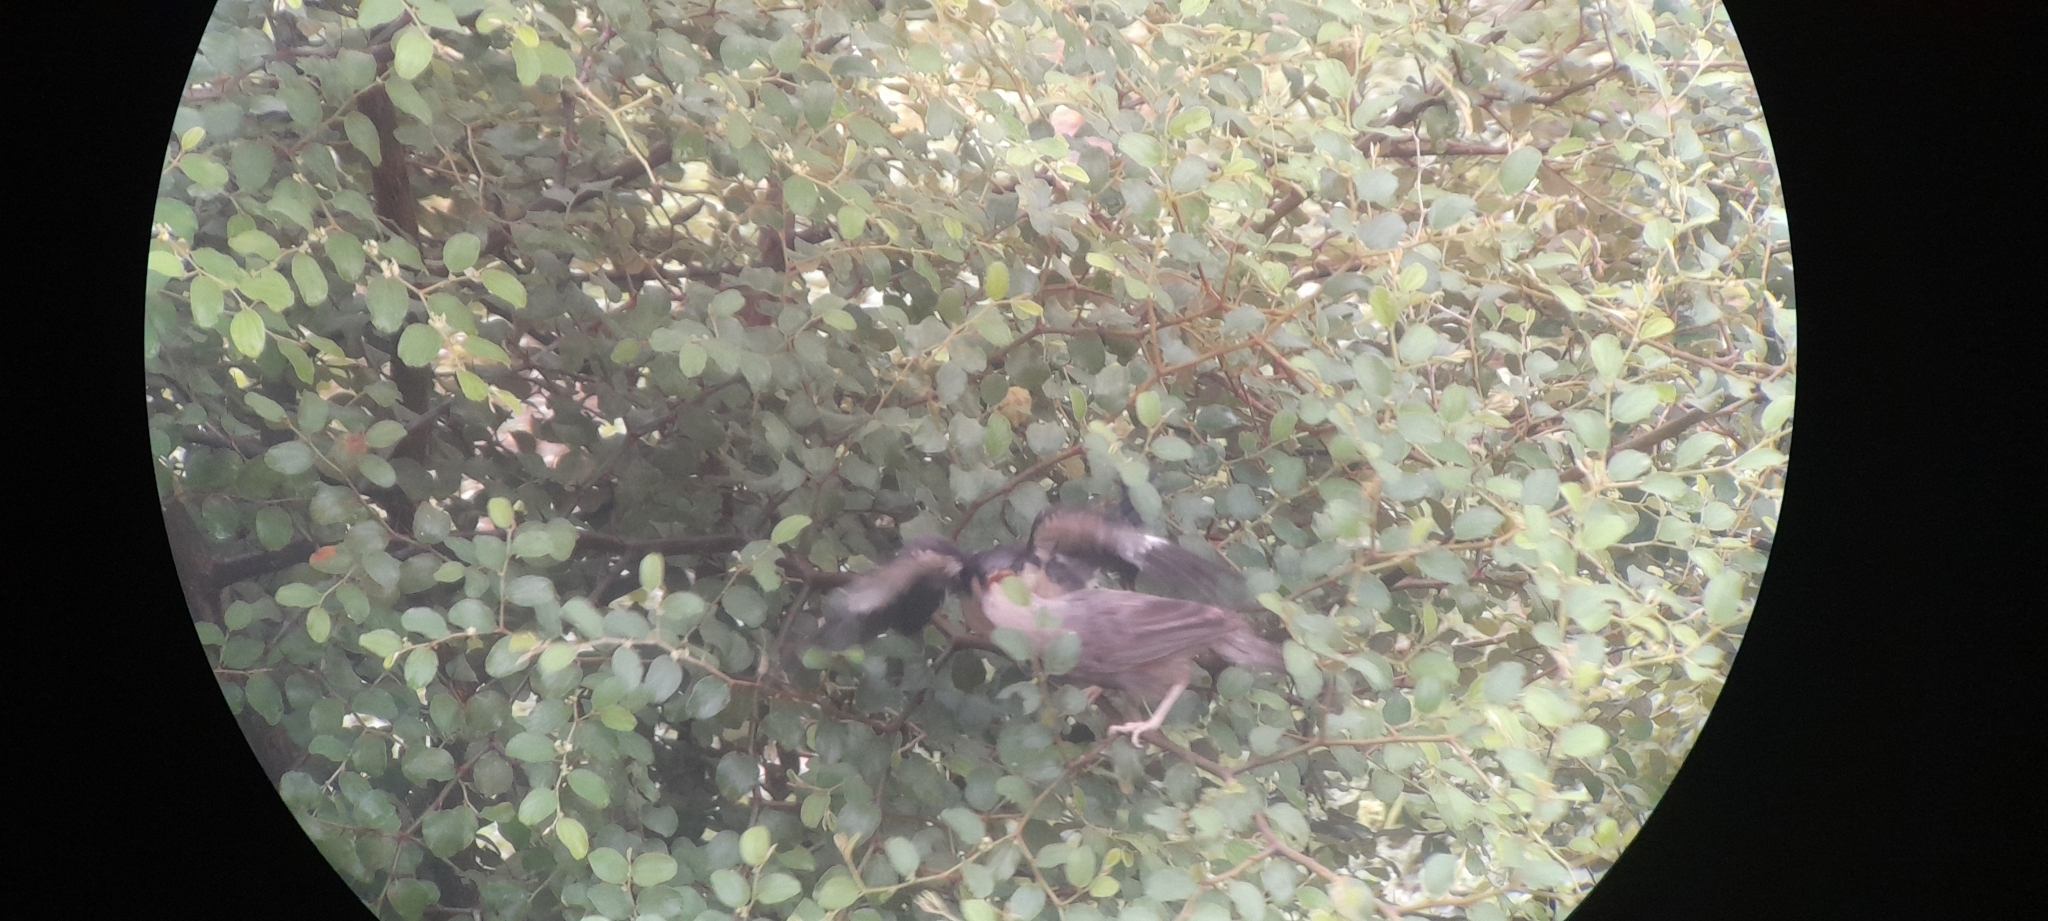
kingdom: Animalia
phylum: Chordata
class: Aves
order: Passeriformes
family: Leiothrichidae
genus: Turdoides
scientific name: Turdoides affinis
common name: Yellow-billed babbler
